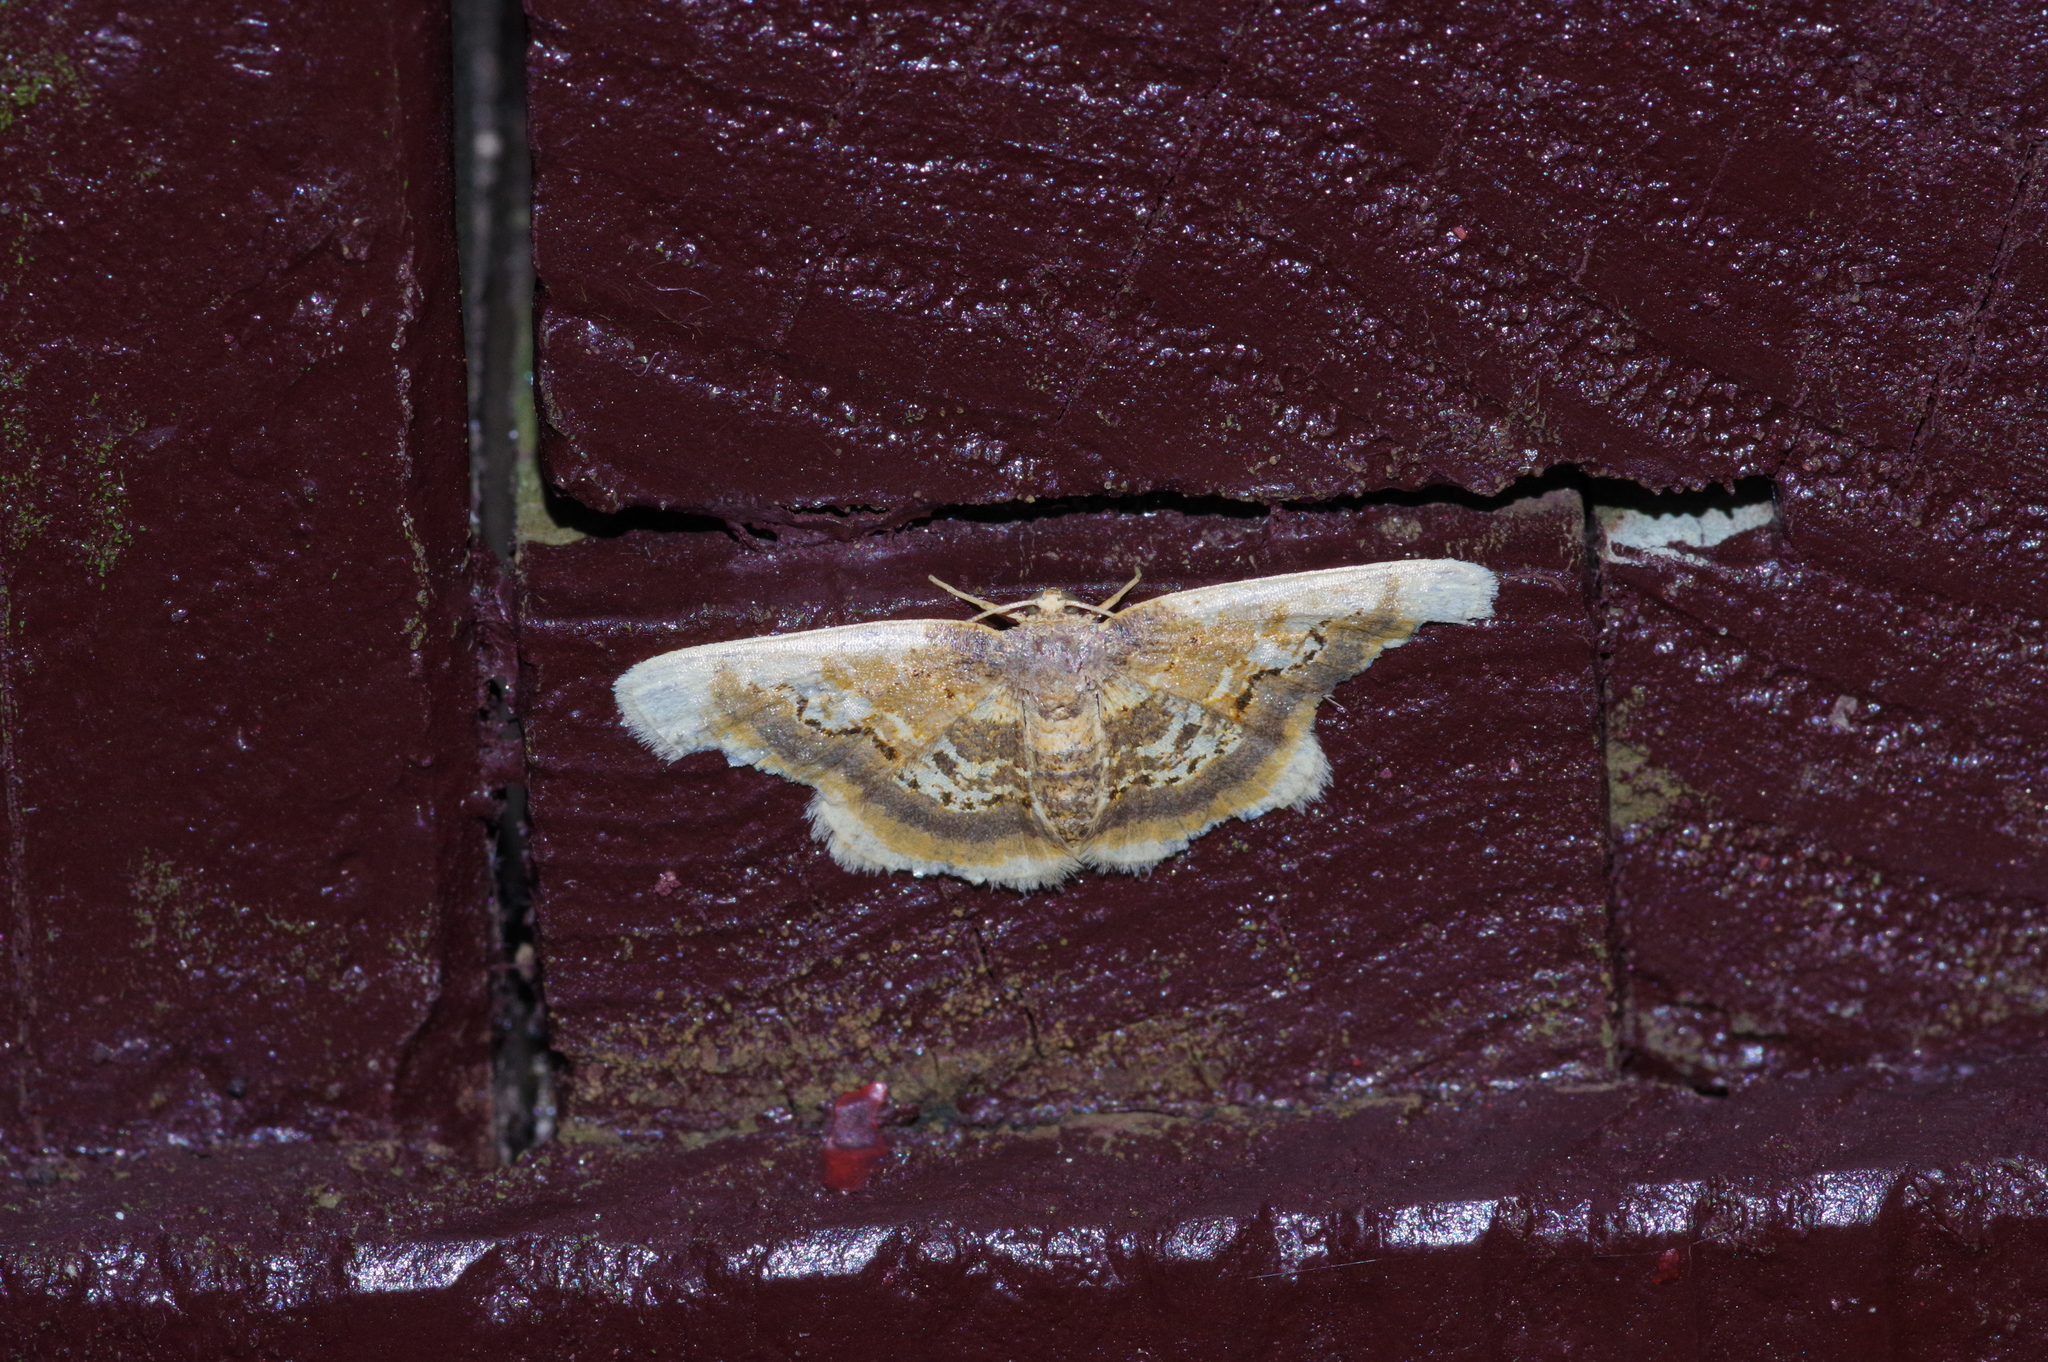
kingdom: Animalia
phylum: Arthropoda
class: Insecta
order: Lepidoptera
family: Geometridae
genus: Ninodes
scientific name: Ninodes watanabei
